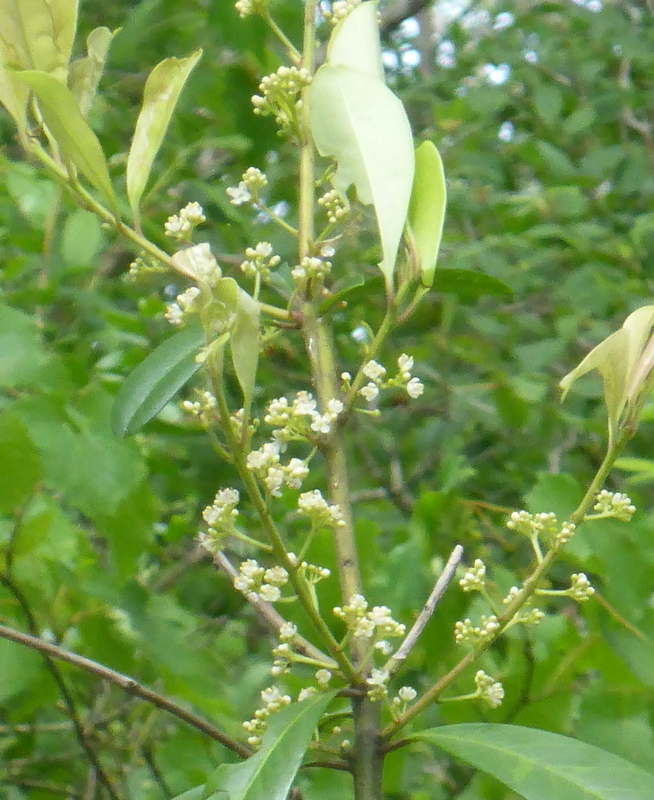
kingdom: Plantae
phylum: Tracheophyta
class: Magnoliopsida
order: Aquifoliales
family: Aquifoliaceae
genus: Ilex
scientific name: Ilex cassine
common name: Dahoon
